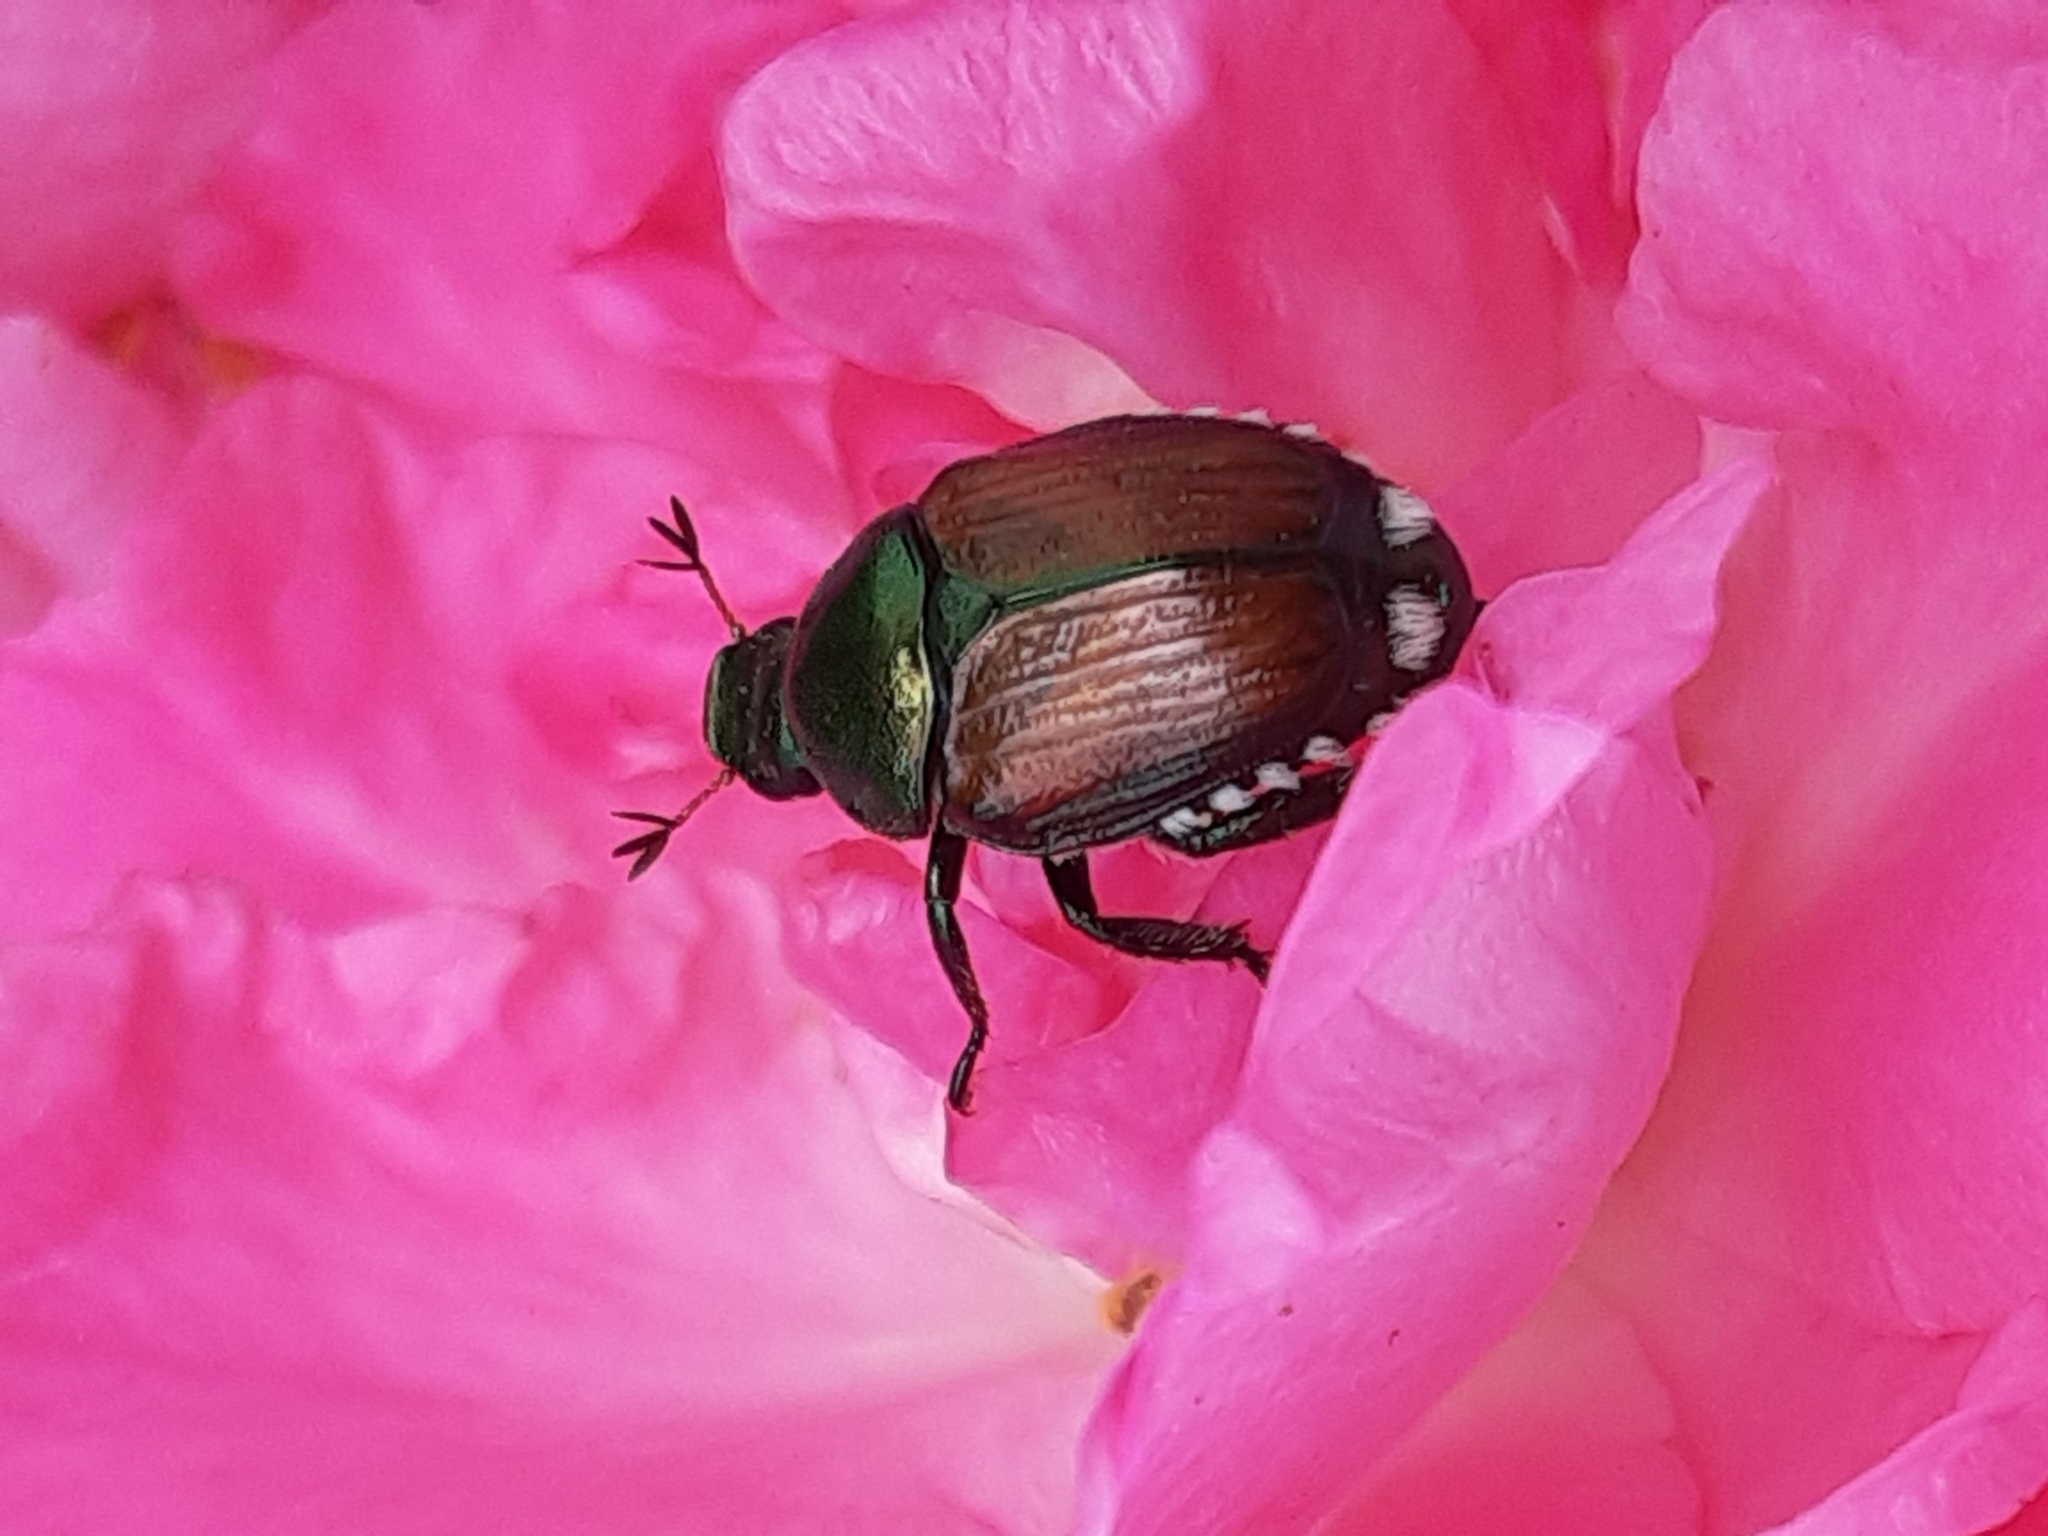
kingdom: Animalia
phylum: Arthropoda
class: Insecta
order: Coleoptera
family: Scarabaeidae
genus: Popillia
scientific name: Popillia japonica
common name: Japanese beetle
